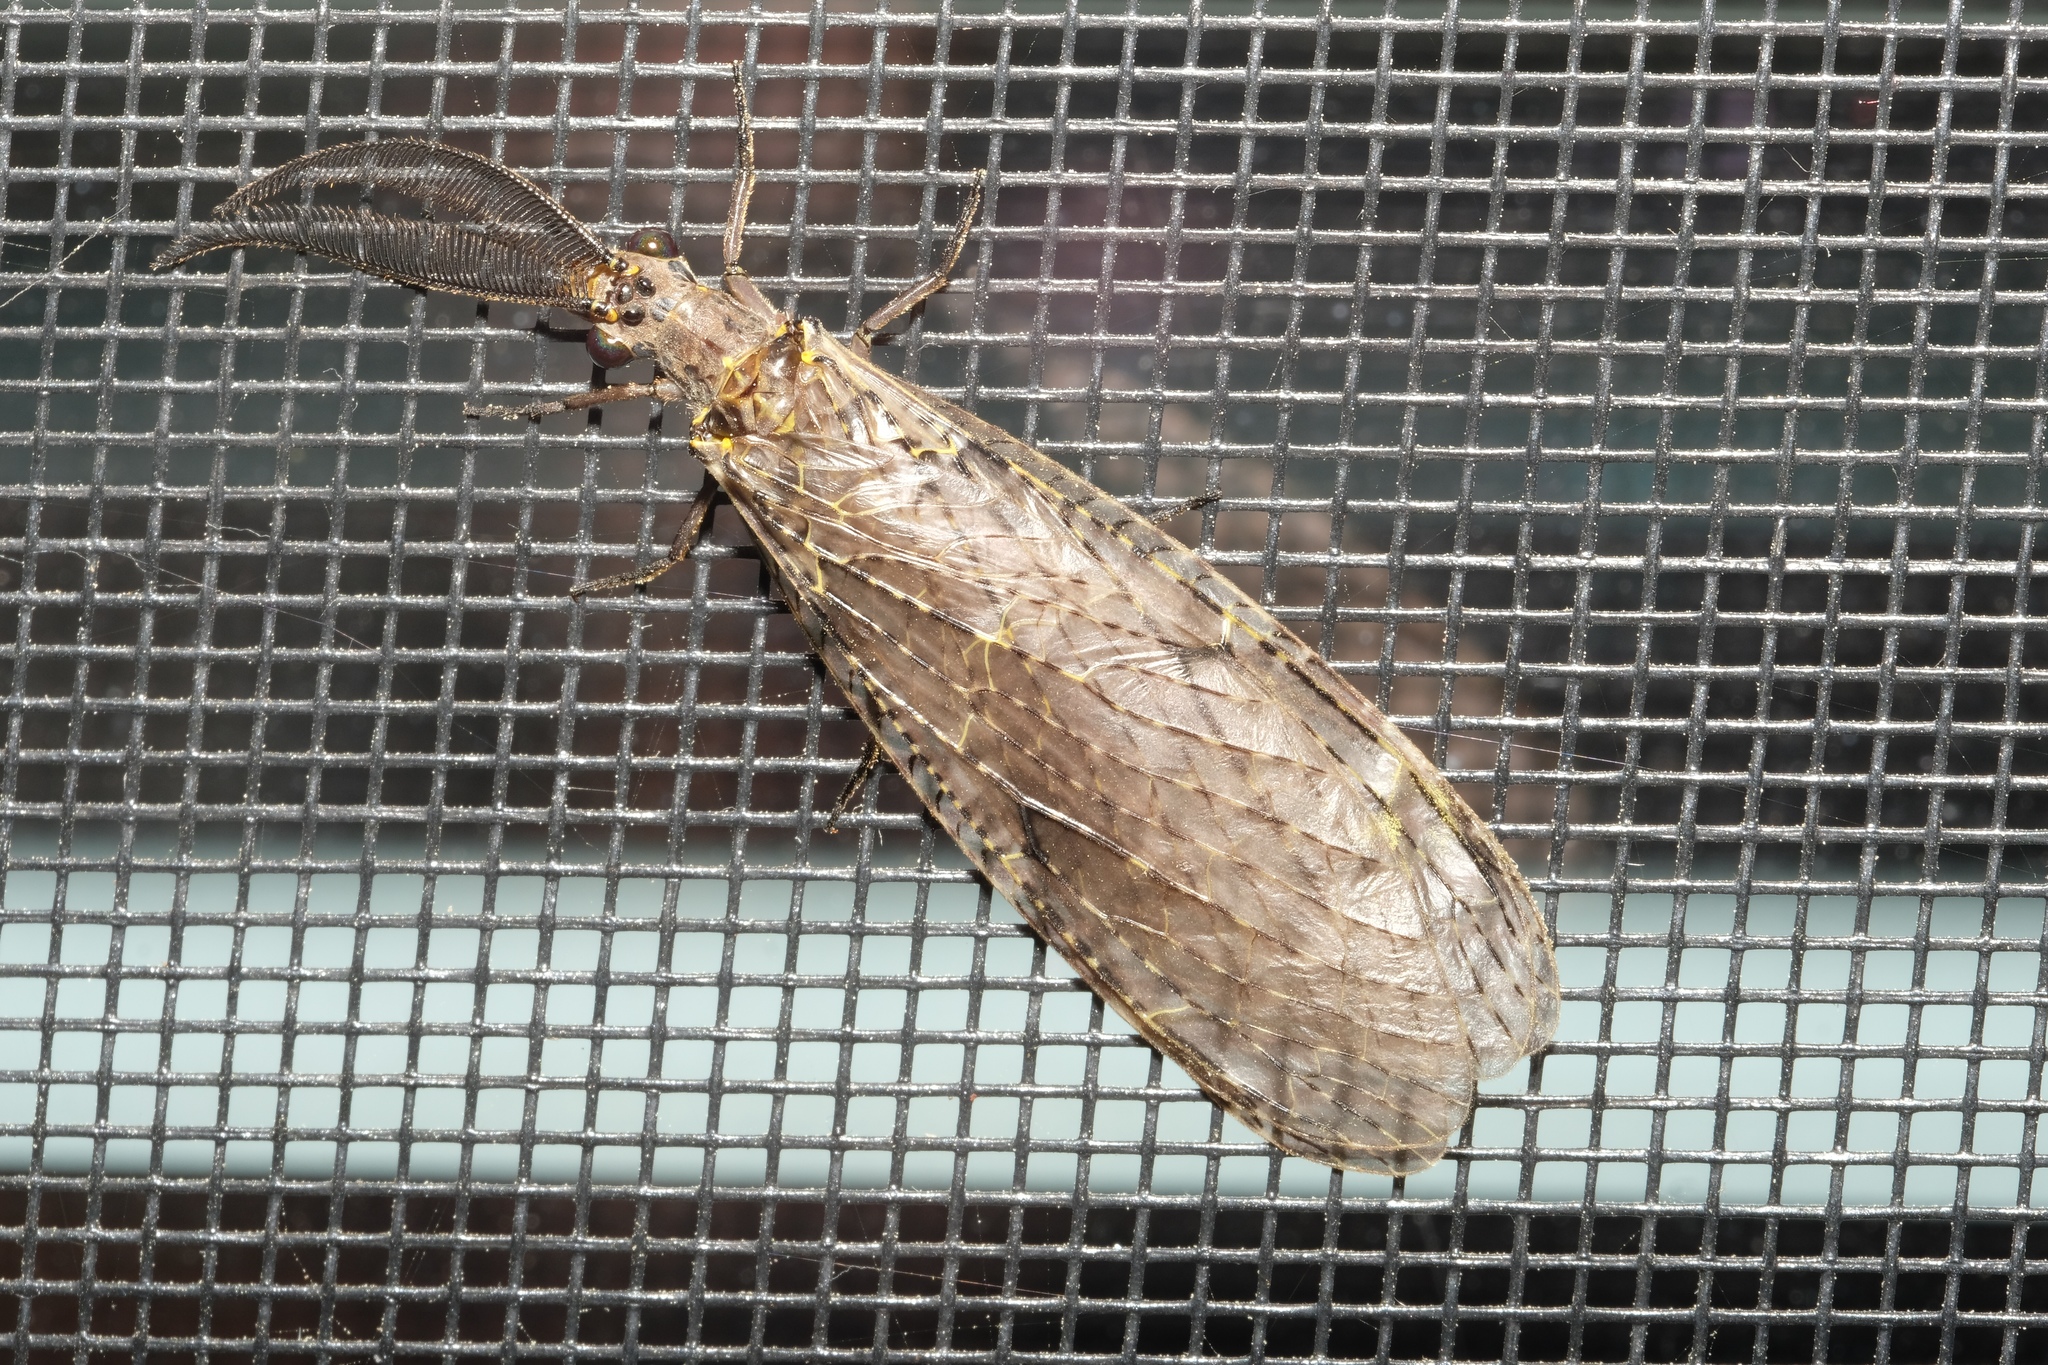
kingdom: Animalia
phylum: Arthropoda
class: Insecta
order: Megaloptera
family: Corydalidae
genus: Chauliodes
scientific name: Chauliodes rastricornis
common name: Spring fishfly
